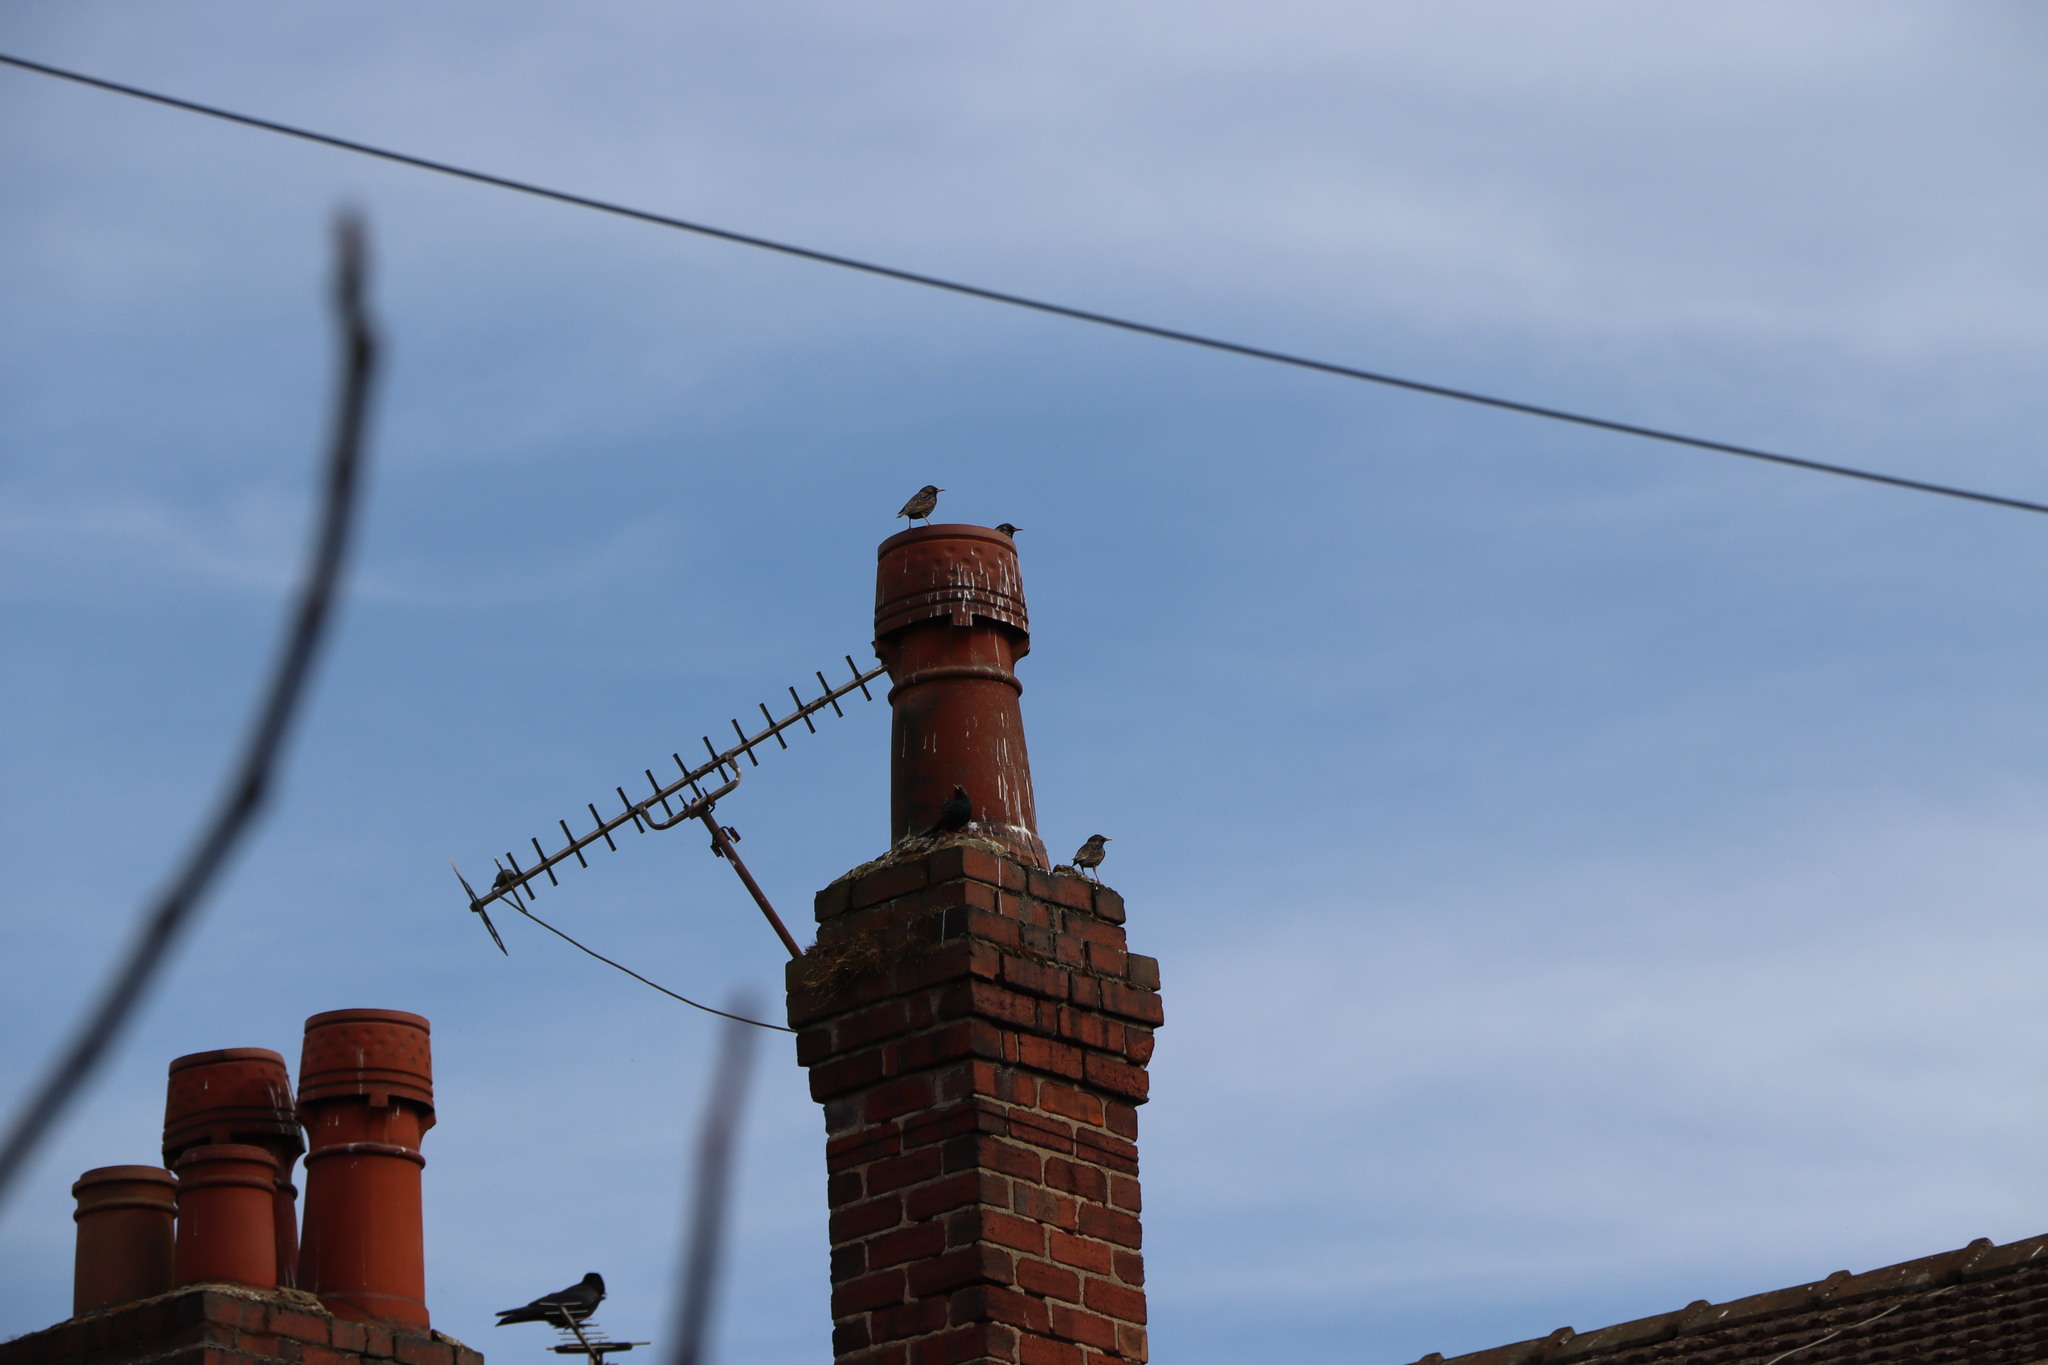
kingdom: Animalia
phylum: Chordata
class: Aves
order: Passeriformes
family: Sturnidae
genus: Sturnus
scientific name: Sturnus vulgaris
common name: Common starling
